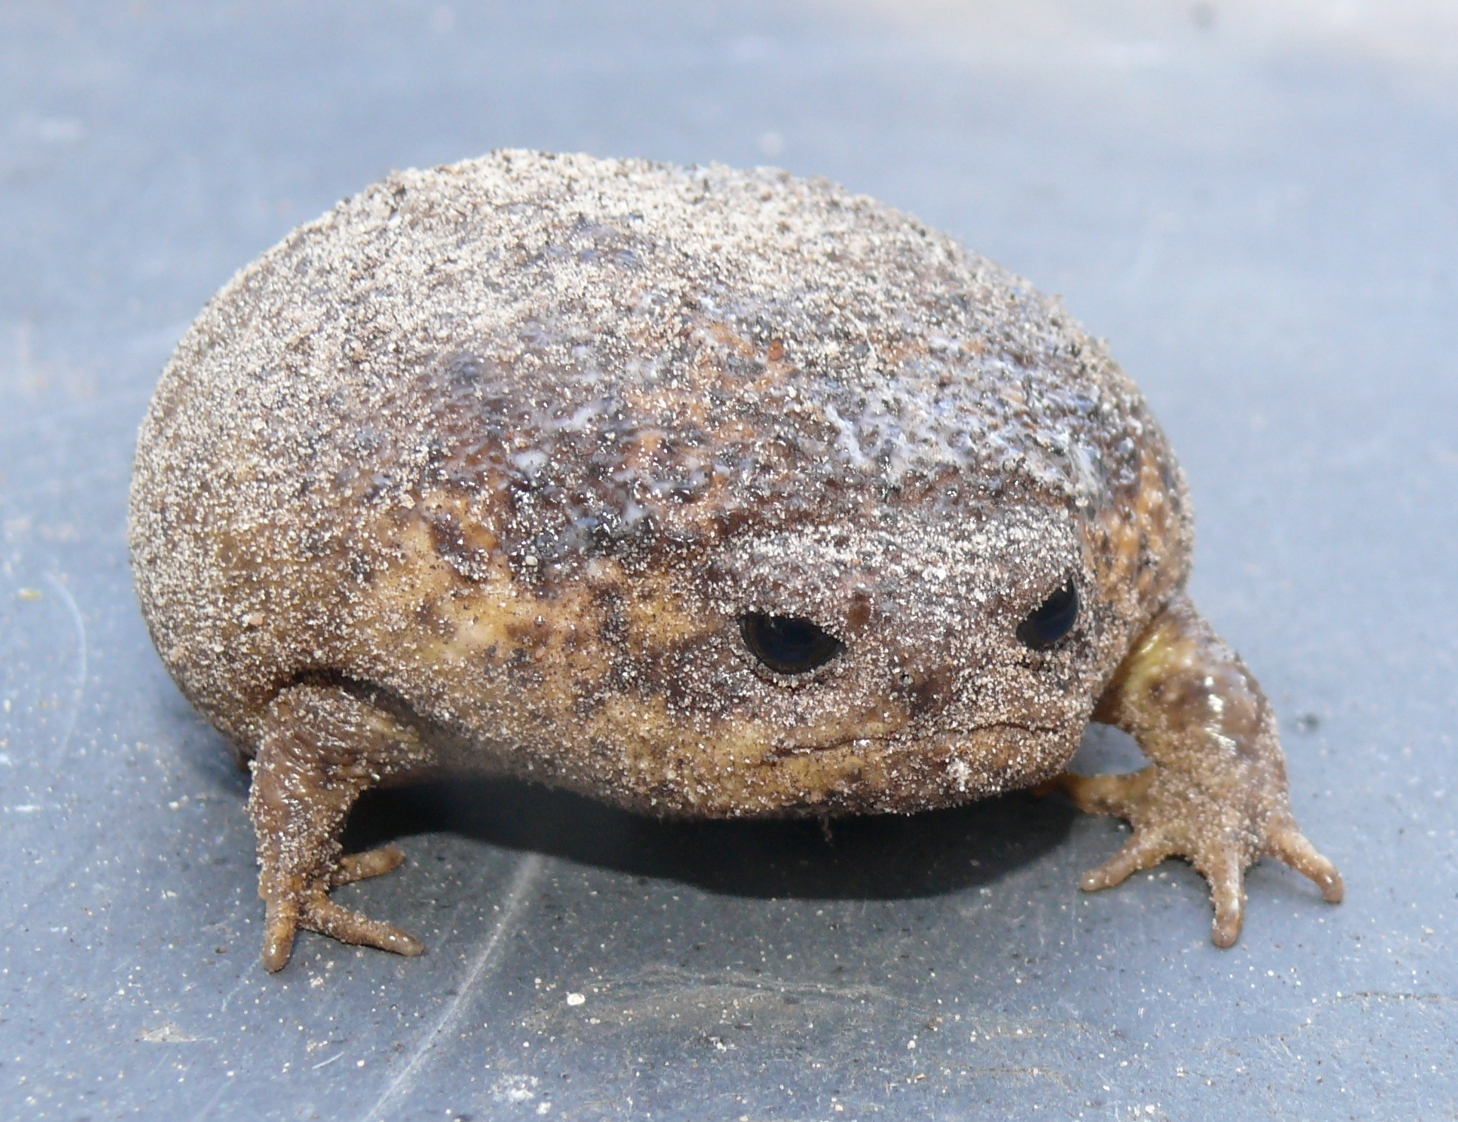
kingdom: Animalia
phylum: Chordata
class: Amphibia
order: Anura
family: Brevicipitidae
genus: Breviceps
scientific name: Breviceps gibbosus
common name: Cape rain frog
